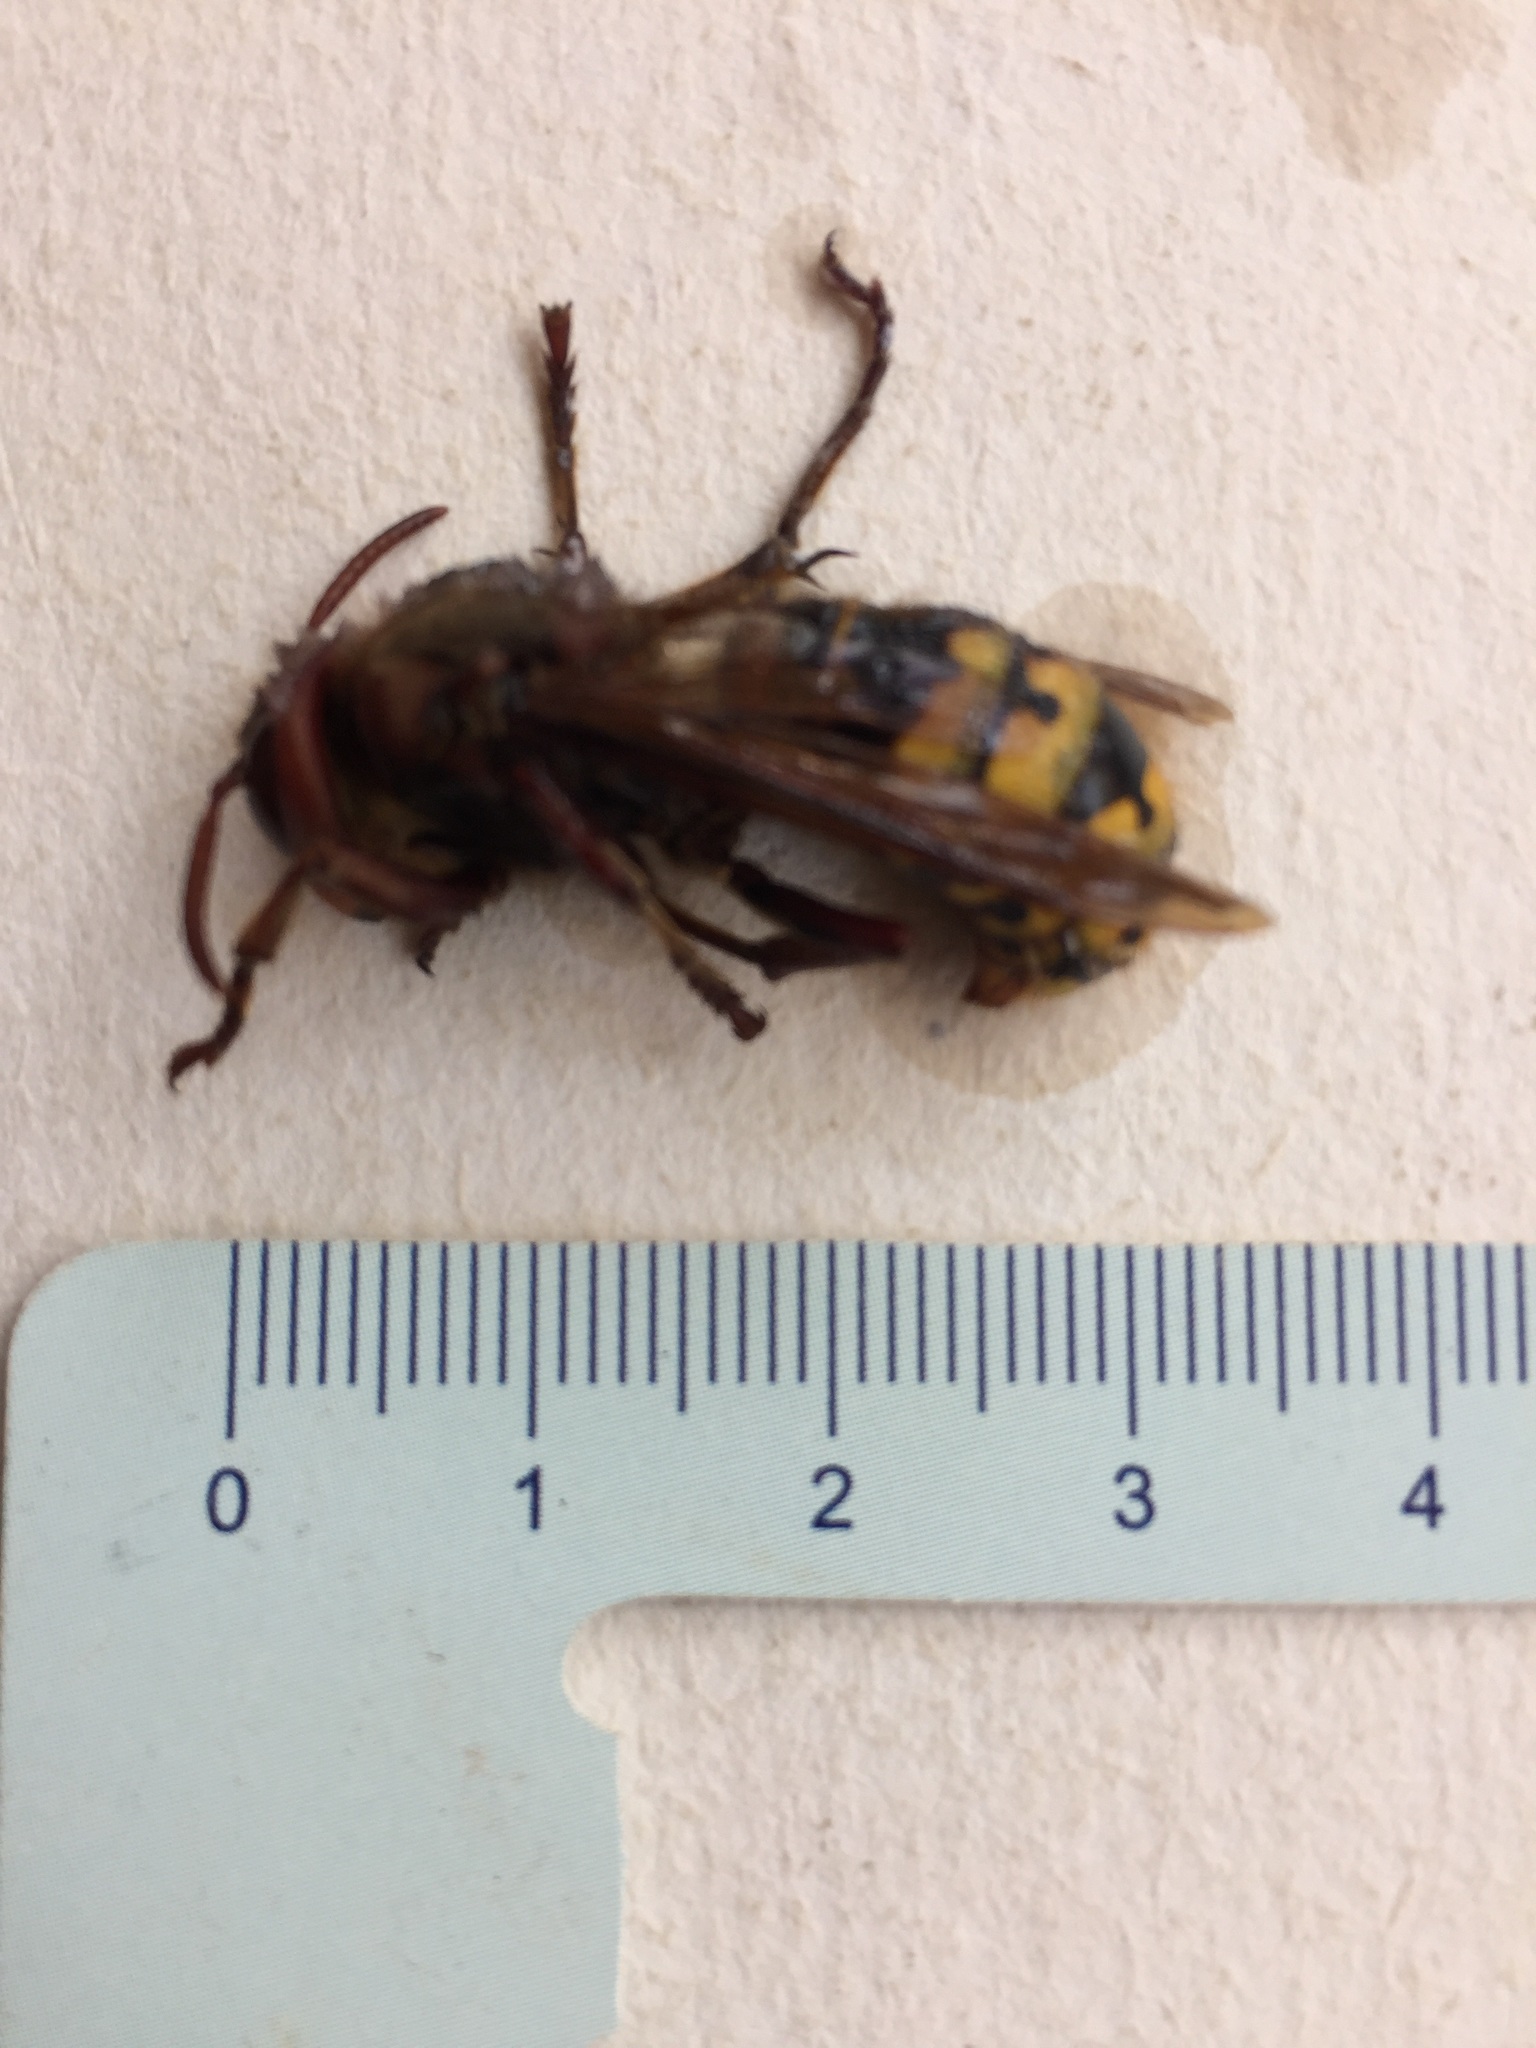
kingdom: Animalia
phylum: Arthropoda
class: Insecta
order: Hymenoptera
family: Vespidae
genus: Vespa
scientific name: Vespa crabro
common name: Hornet
